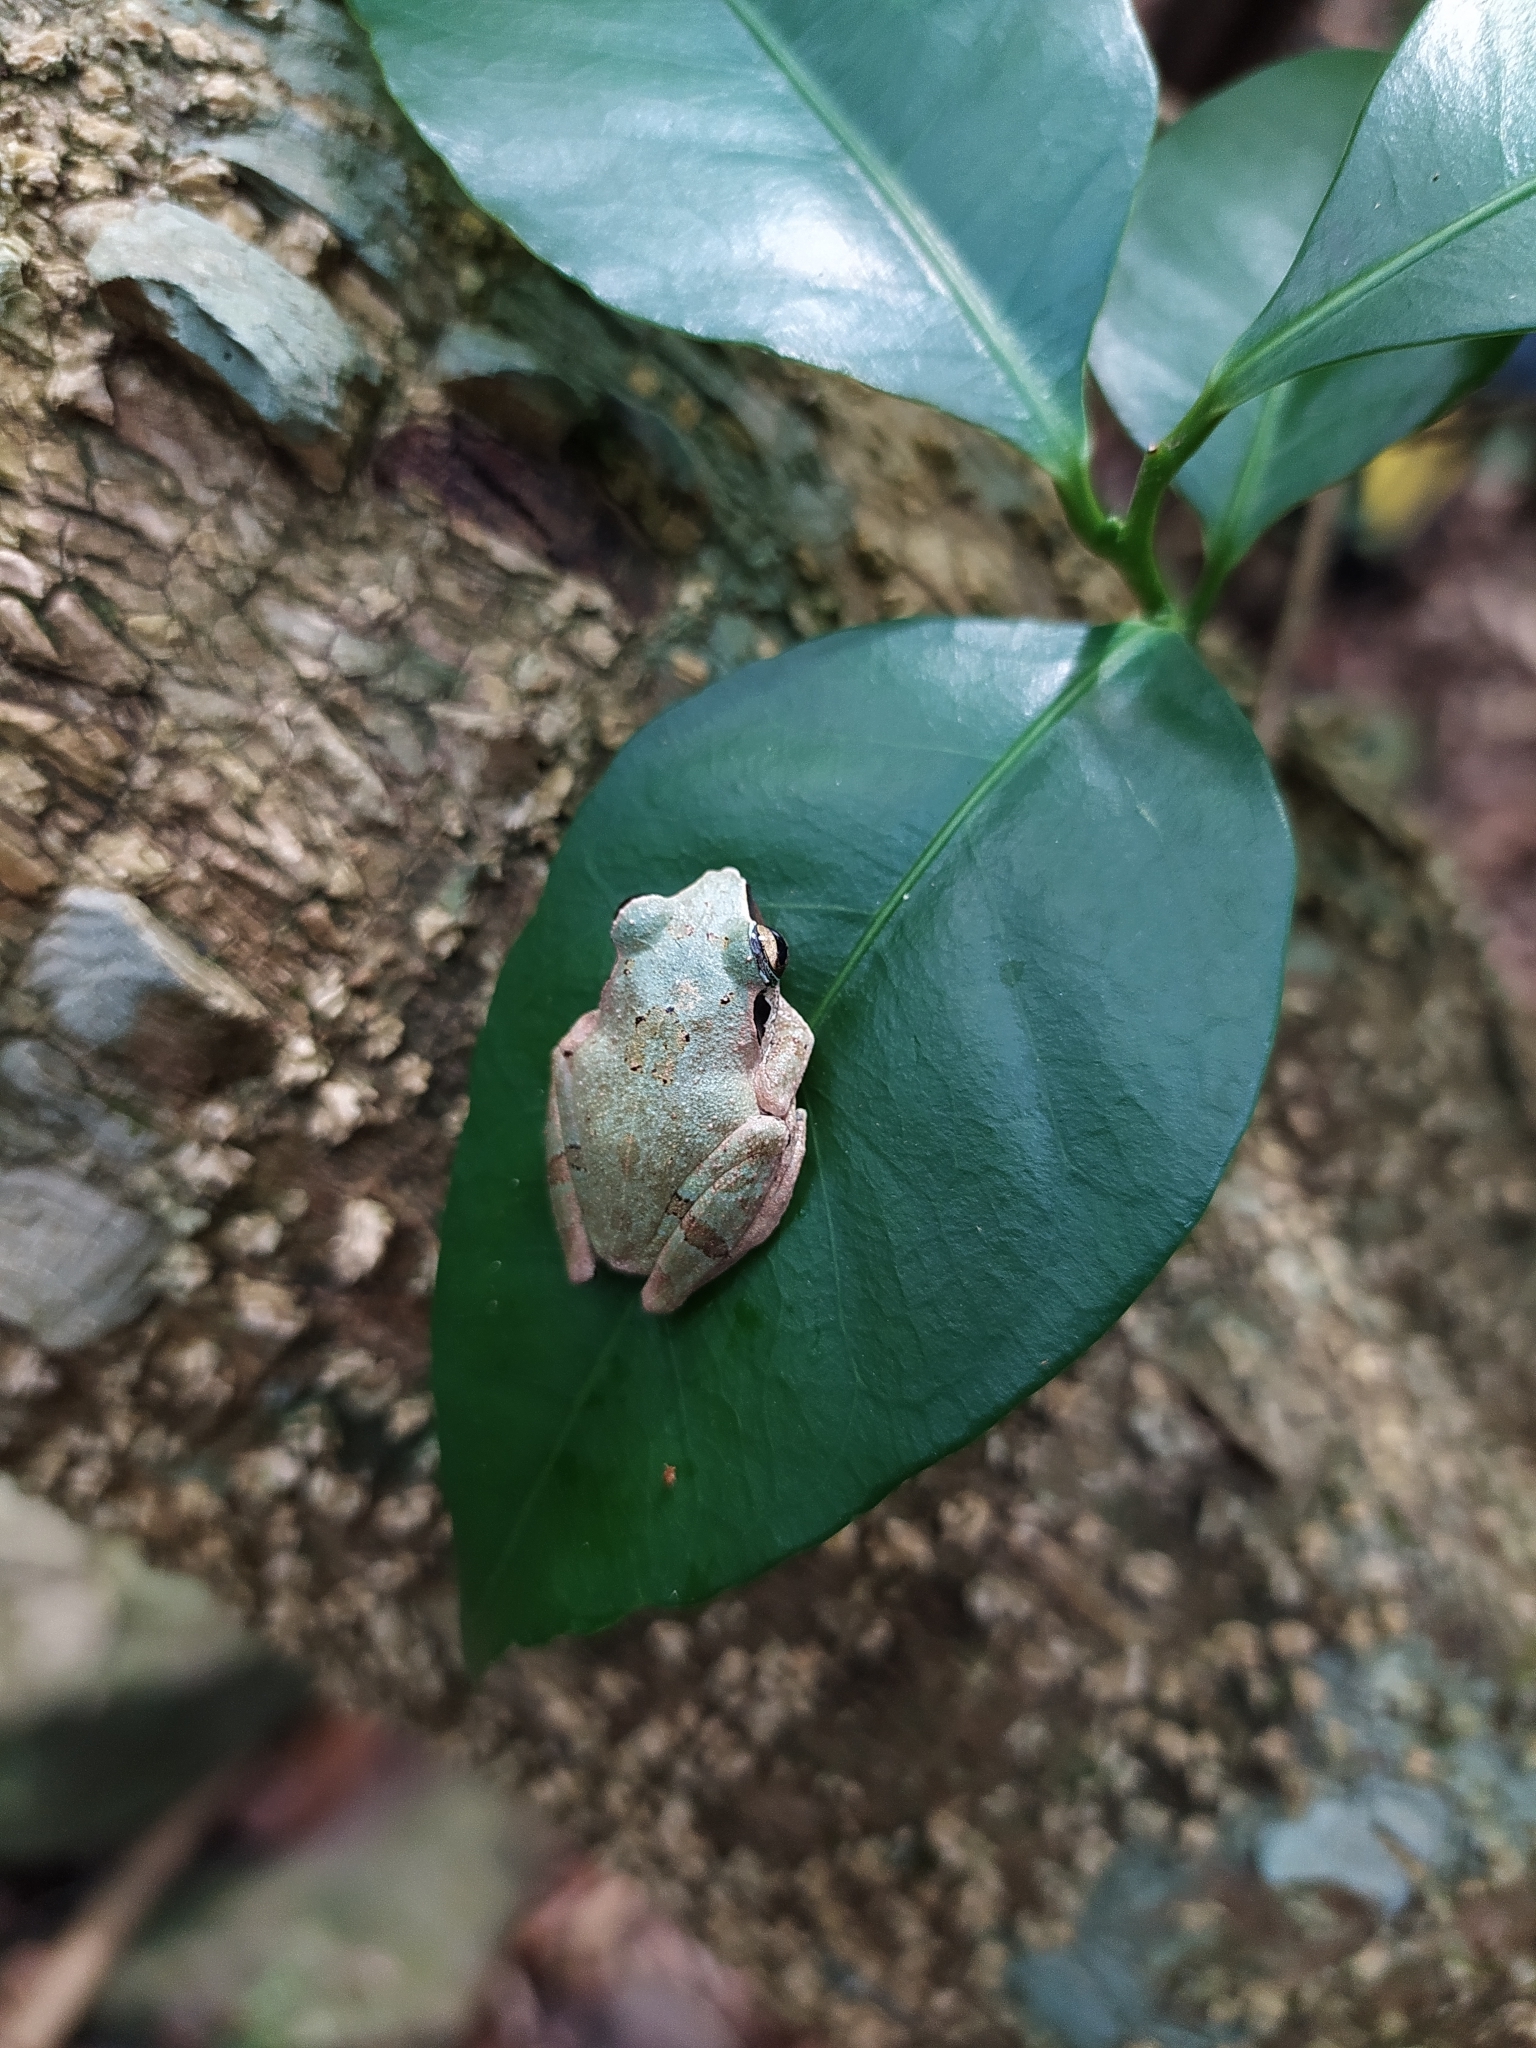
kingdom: Animalia
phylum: Chordata
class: Amphibia
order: Anura
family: Rhacophoridae
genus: Pseudophilautus
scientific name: Pseudophilautus wynaadensis
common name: Dark-eared bush frog
